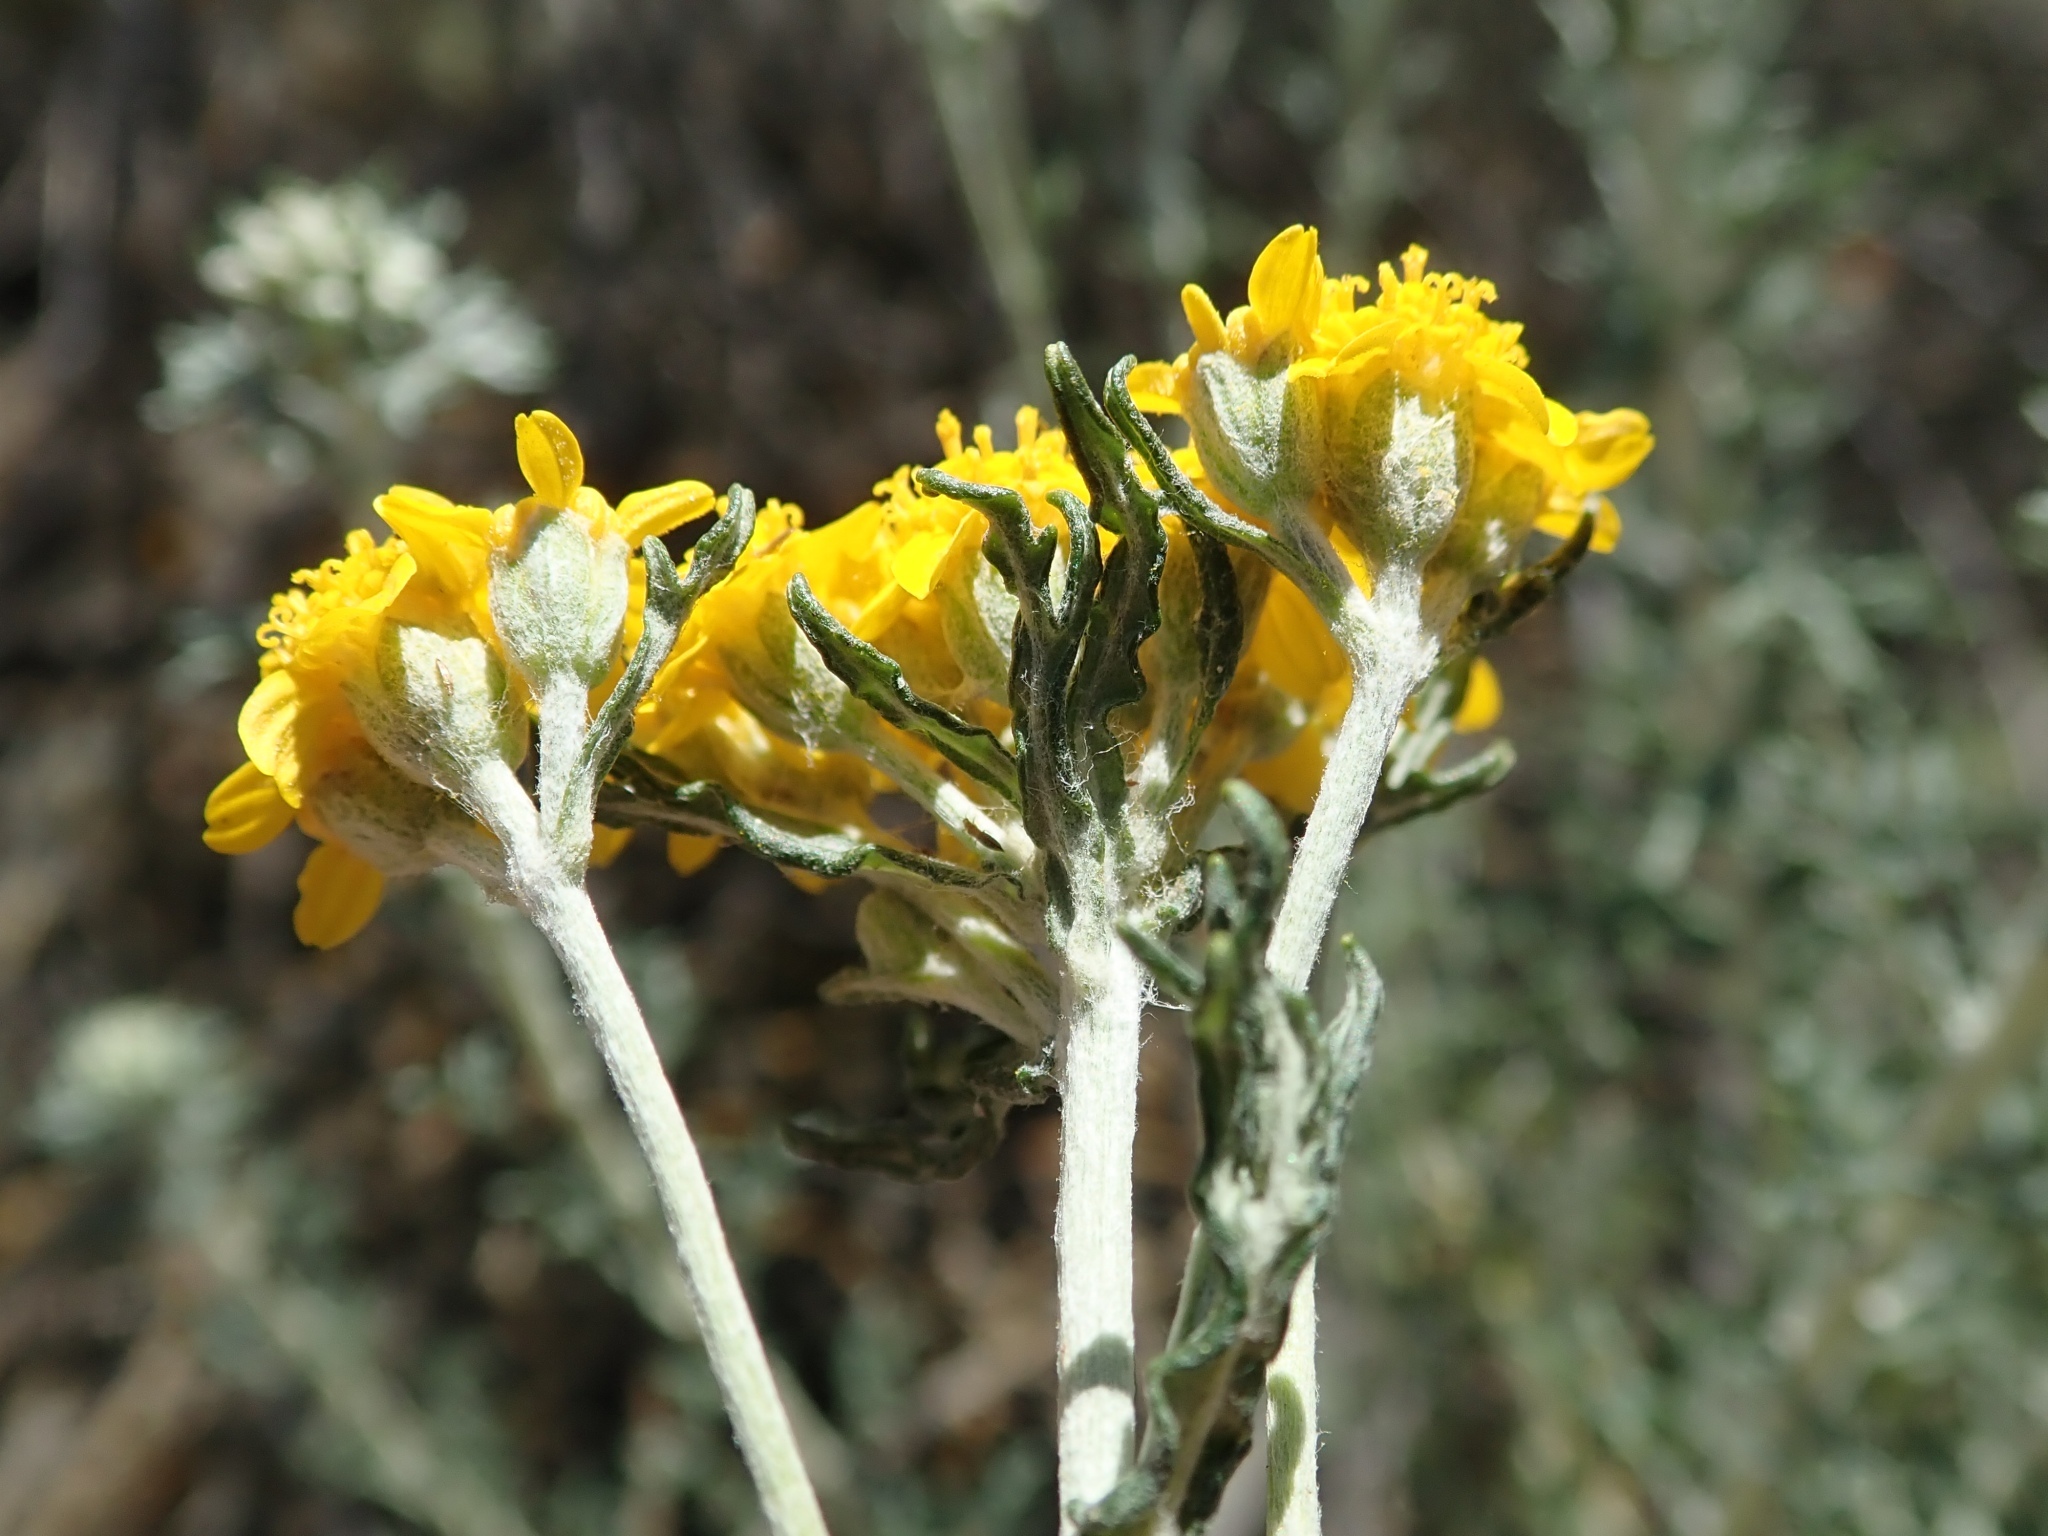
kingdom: Plantae
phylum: Tracheophyta
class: Magnoliopsida
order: Asterales
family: Asteraceae
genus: Eriophyllum
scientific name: Eriophyllum confertiflorum
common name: Golden-yarrow
